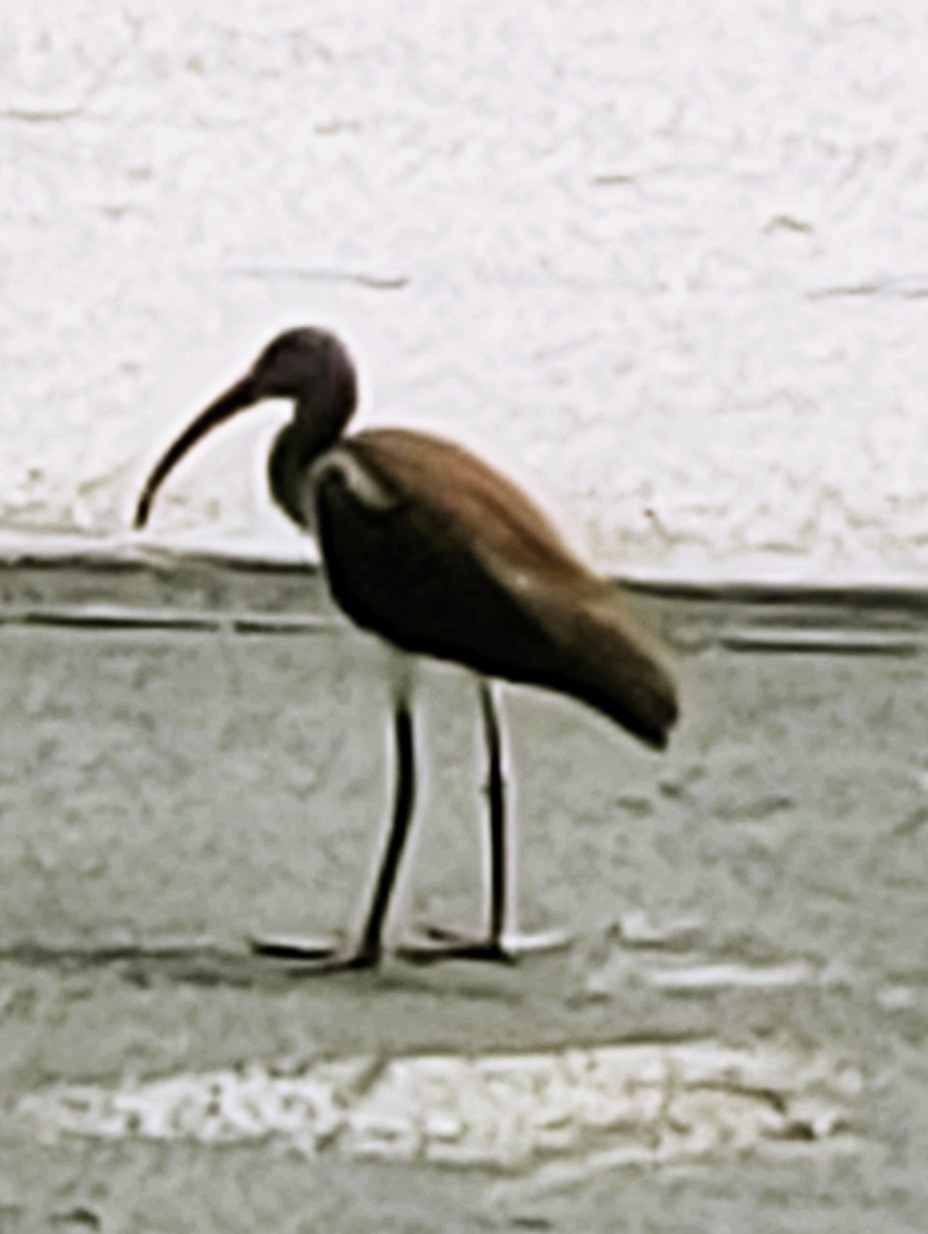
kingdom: Animalia
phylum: Chordata
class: Aves
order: Pelecaniformes
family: Threskiornithidae
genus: Eudocimus
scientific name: Eudocimus albus
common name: White ibis
